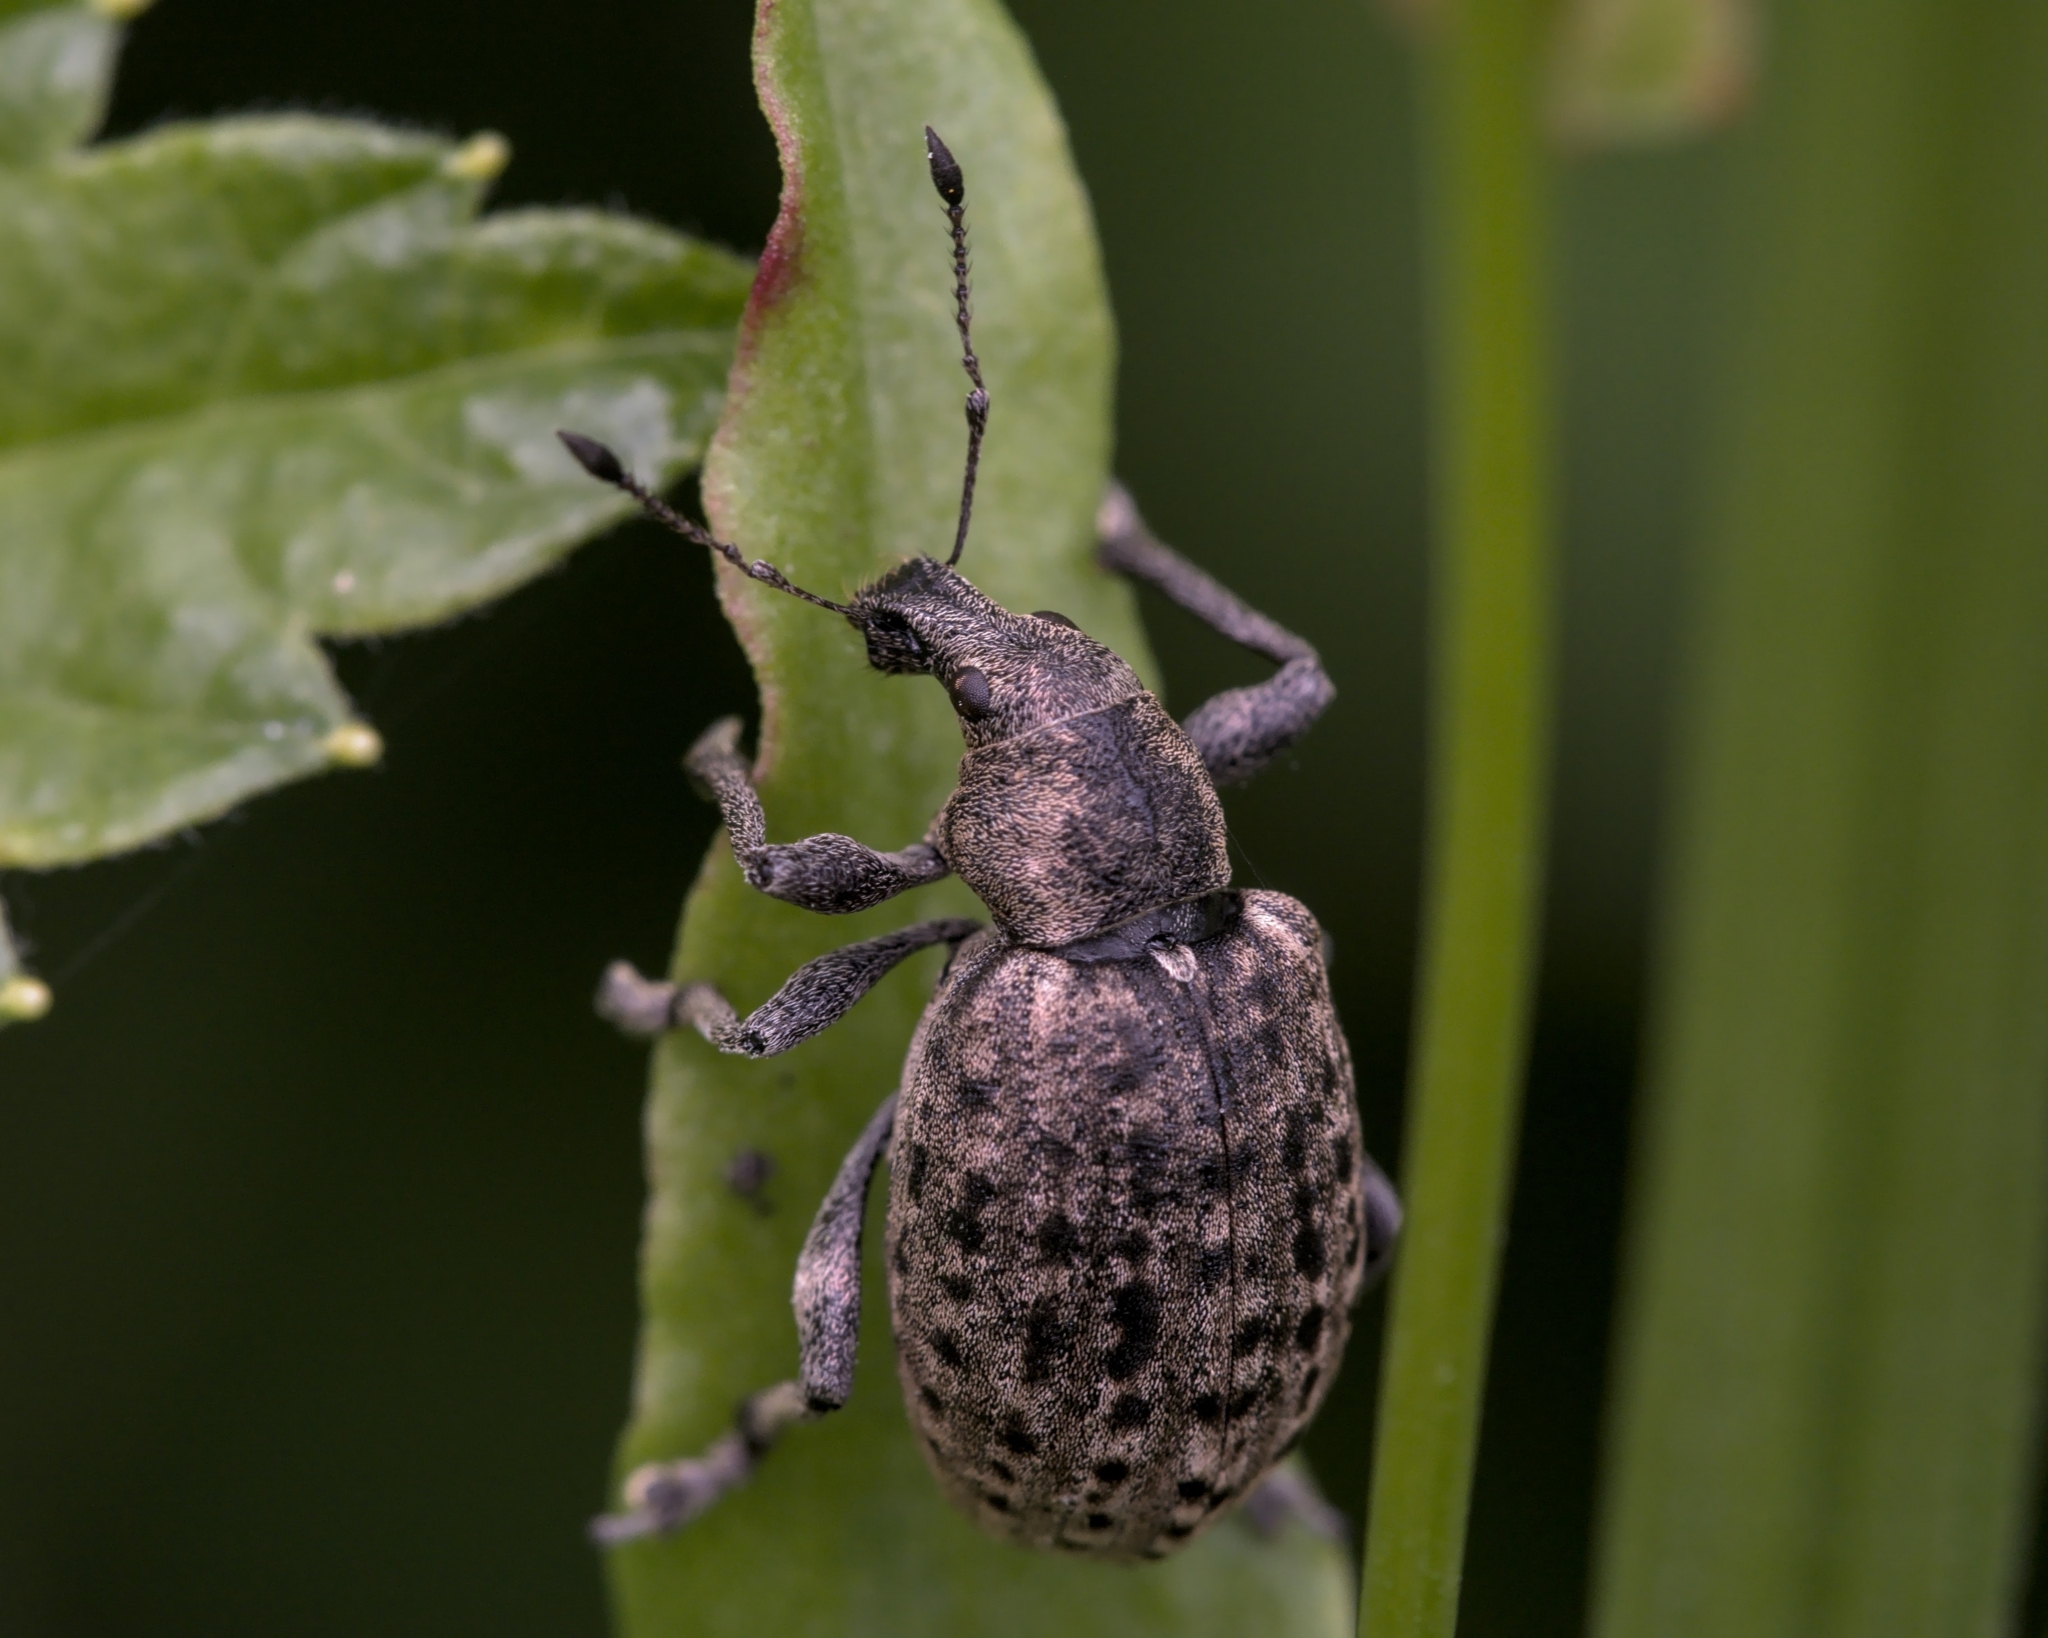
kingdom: Animalia
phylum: Arthropoda
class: Insecta
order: Coleoptera
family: Curculionidae
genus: Liophloeus
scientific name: Liophloeus tessulatus
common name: Weevil
